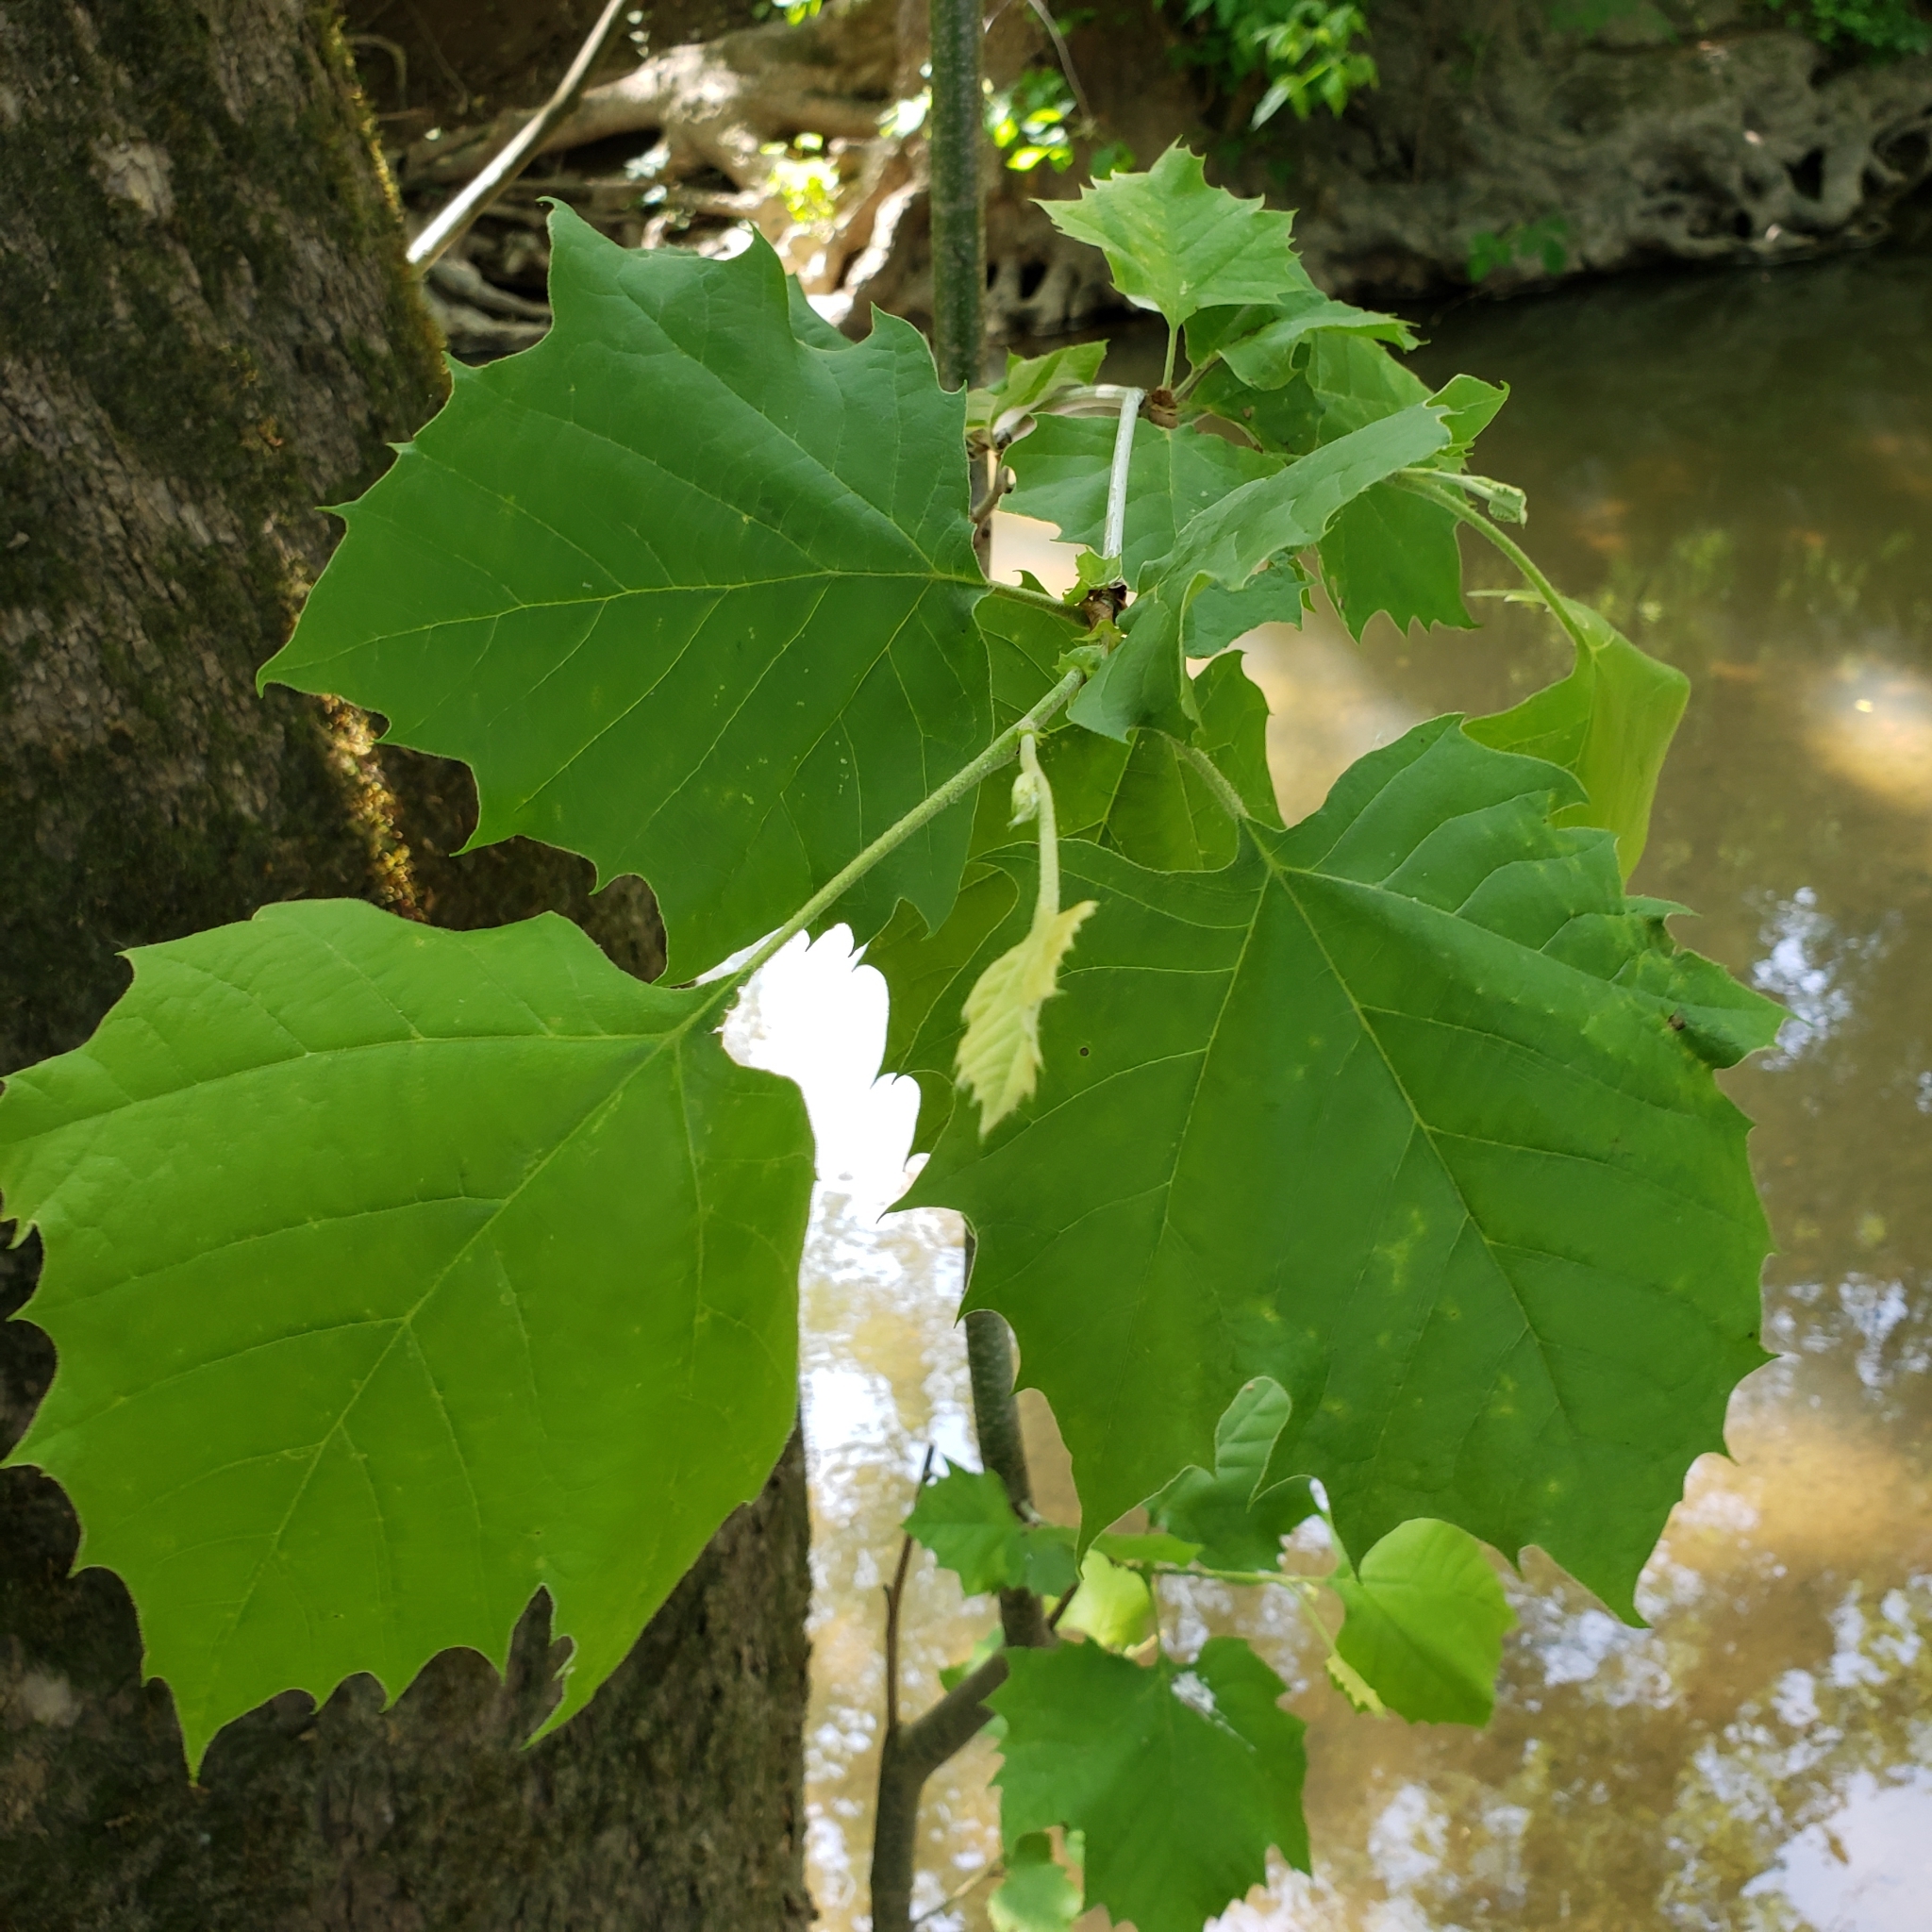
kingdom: Plantae
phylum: Tracheophyta
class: Magnoliopsida
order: Proteales
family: Platanaceae
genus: Platanus
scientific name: Platanus occidentalis
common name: American sycamore
